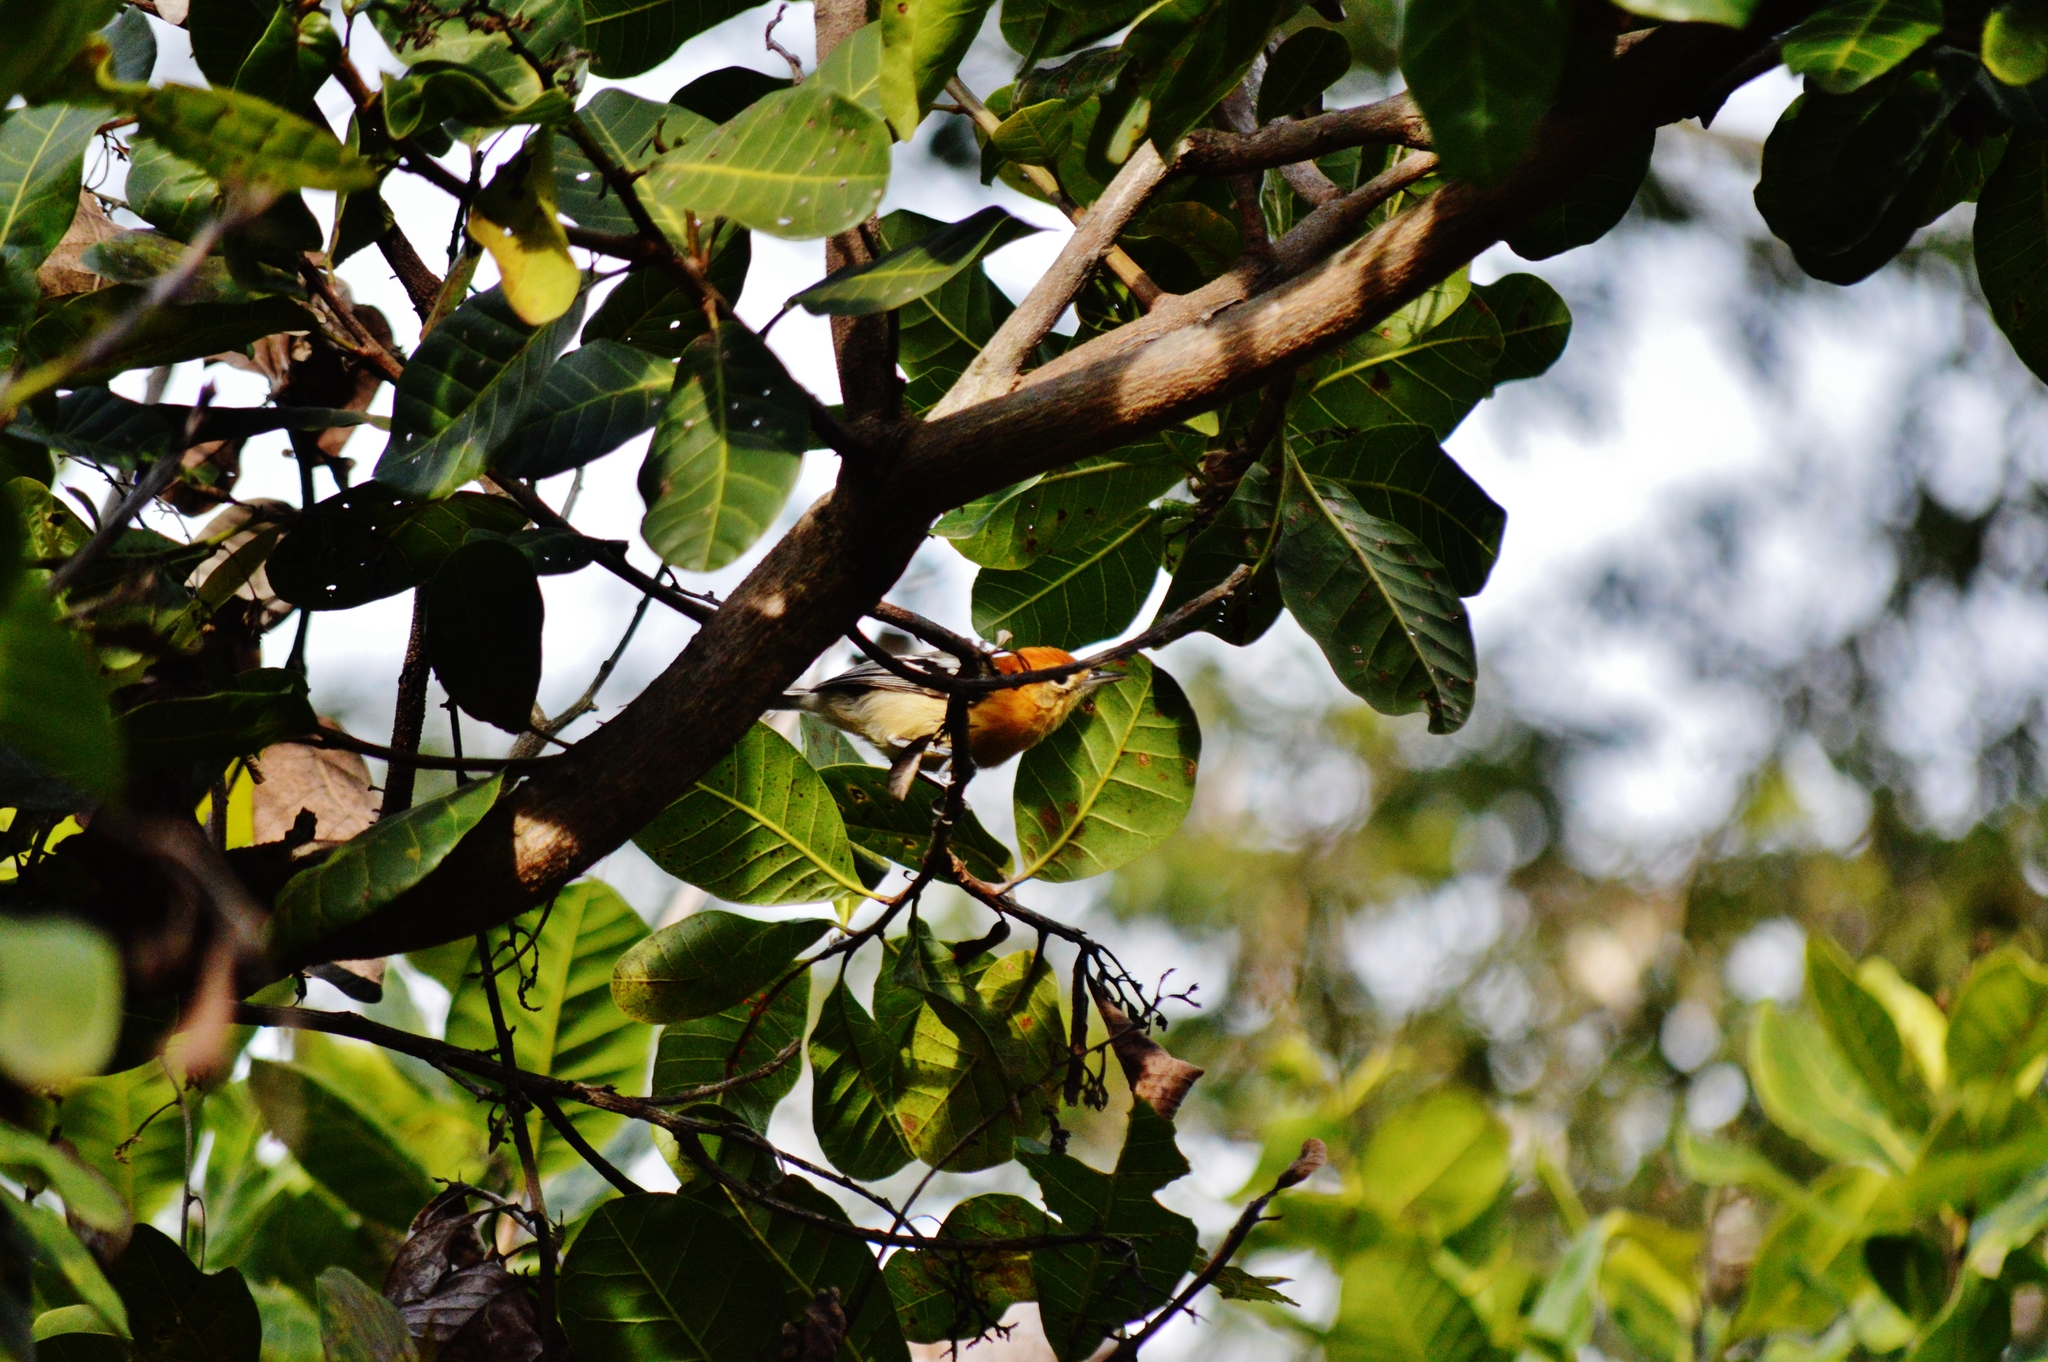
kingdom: Animalia
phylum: Chordata
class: Aves
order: Passeriformes
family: Thamnophilidae
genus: Herpsilochmus
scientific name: Herpsilochmus longirostris
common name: Large-billed antwren
